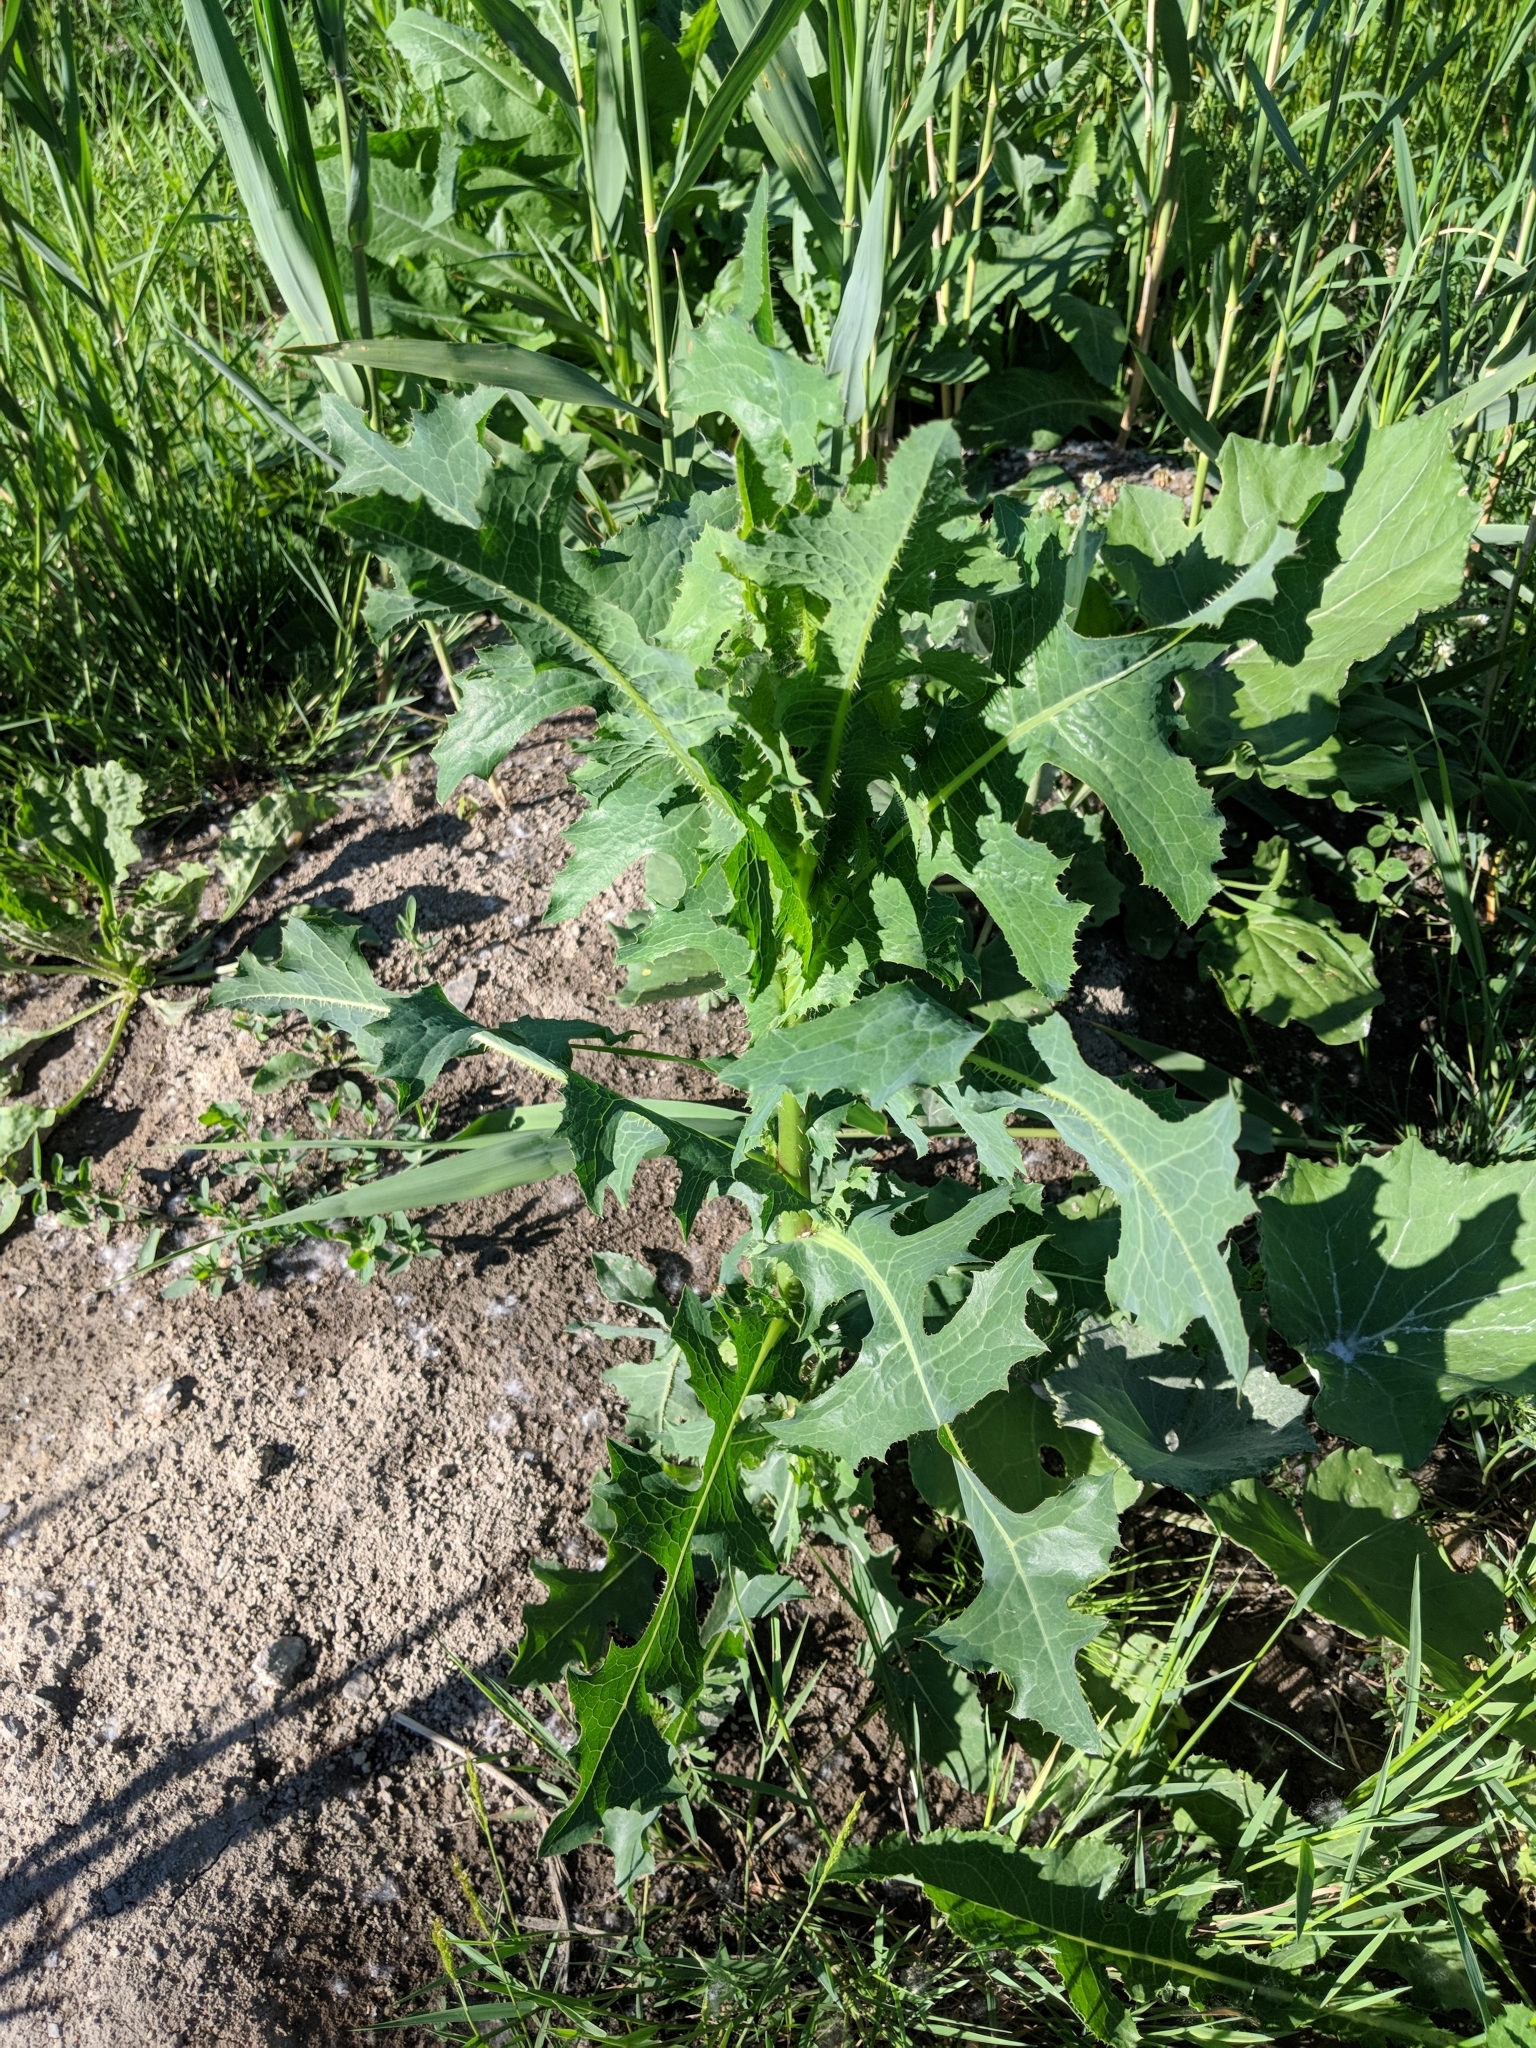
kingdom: Plantae
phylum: Tracheophyta
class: Magnoliopsida
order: Asterales
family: Asteraceae
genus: Lactuca
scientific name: Lactuca serriola
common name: Prickly lettuce
